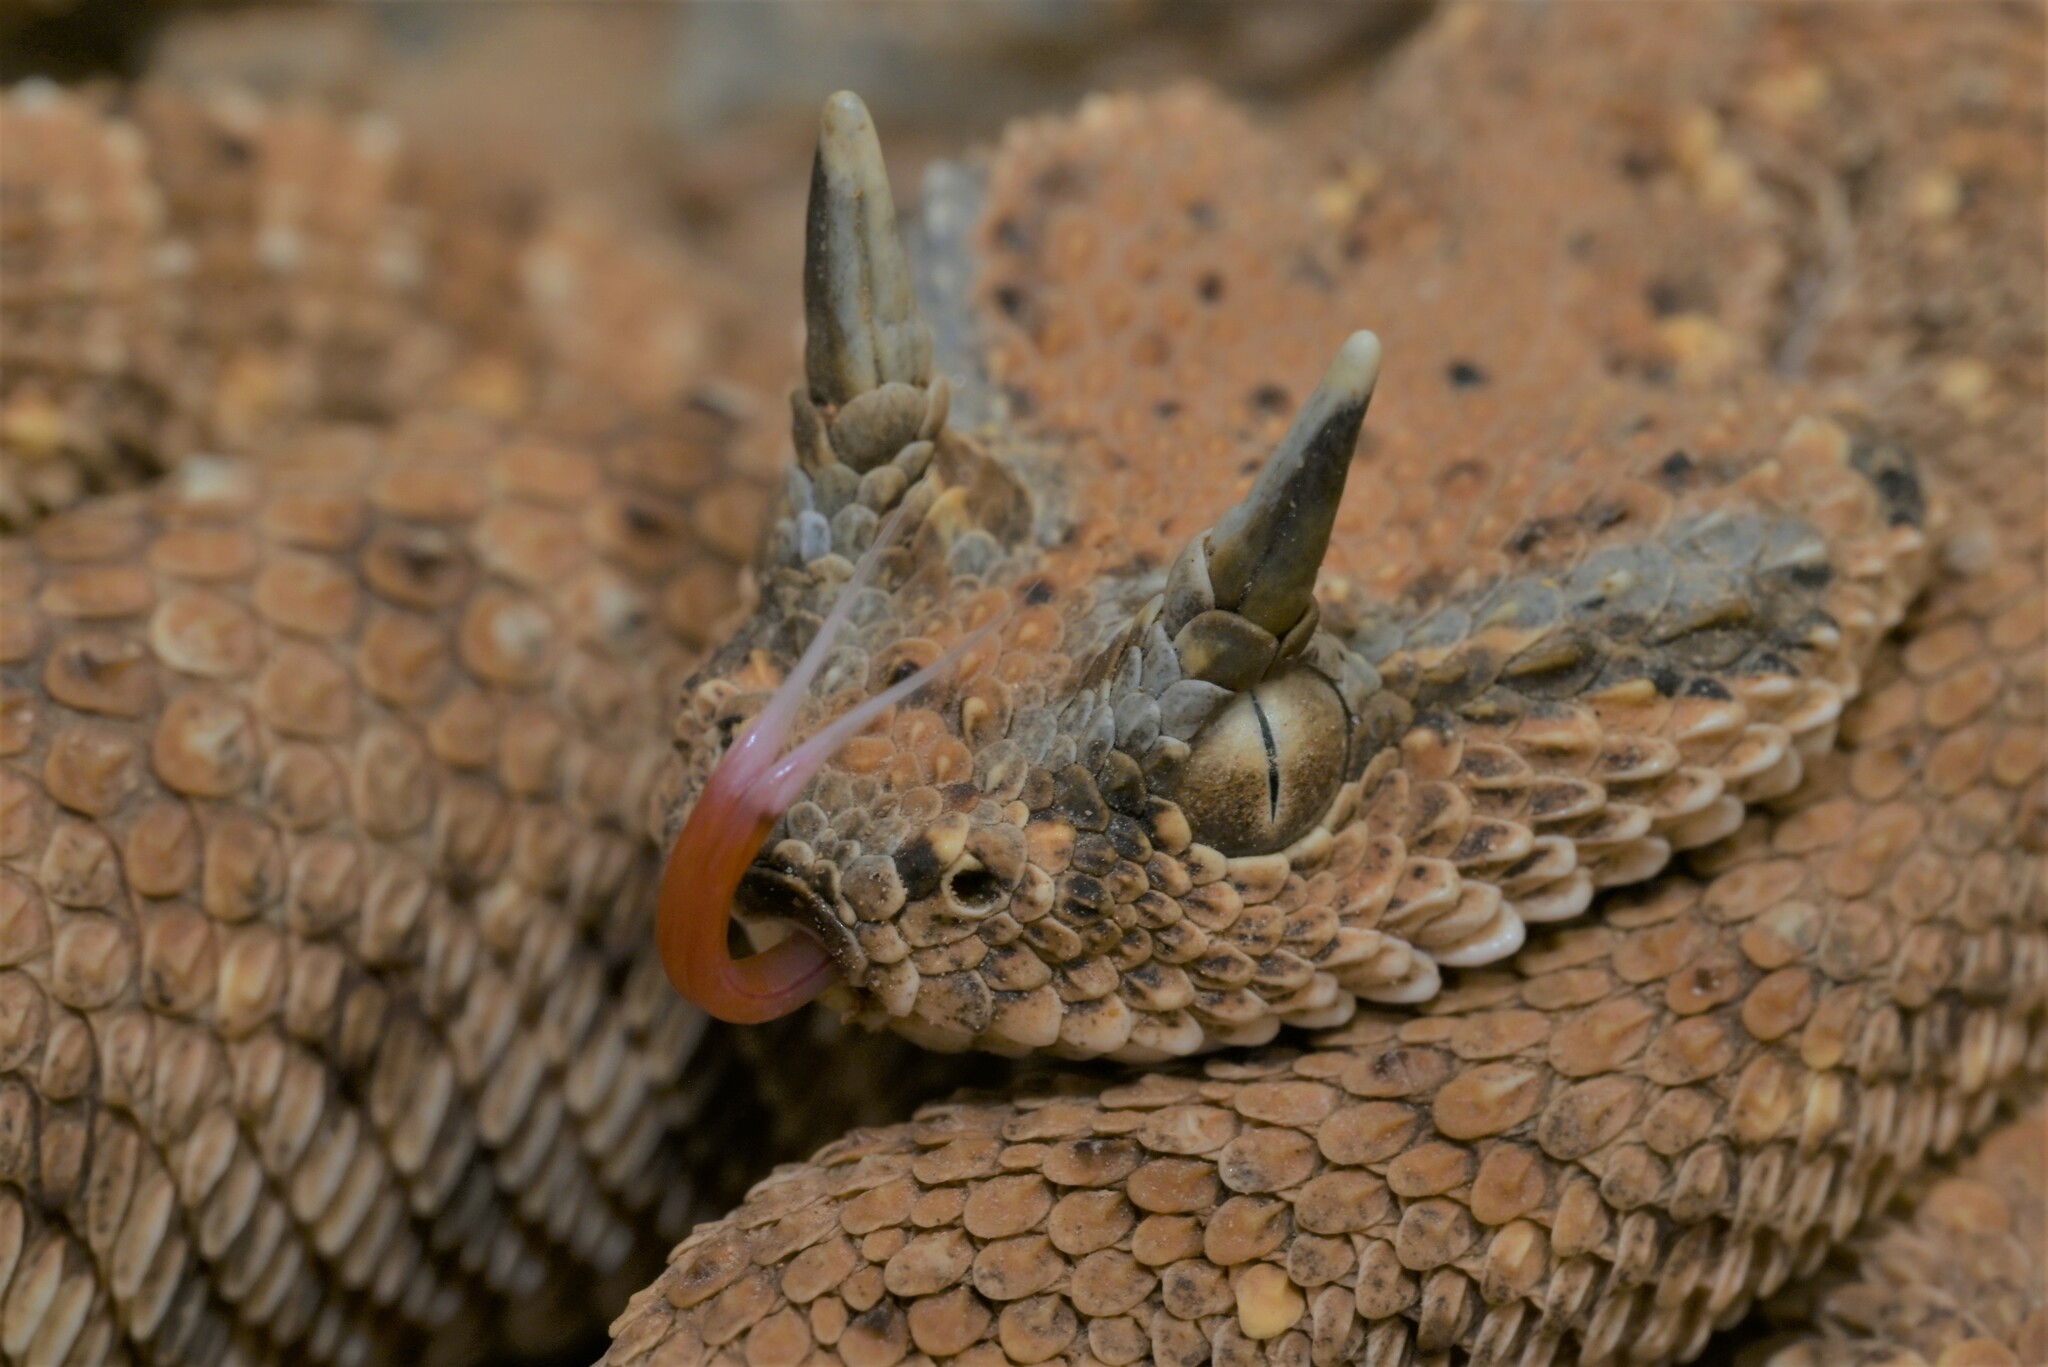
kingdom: Animalia
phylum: Chordata
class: Squamata
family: Viperidae
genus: Cerastes
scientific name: Cerastes gasperettii
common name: Arabian horned viper
